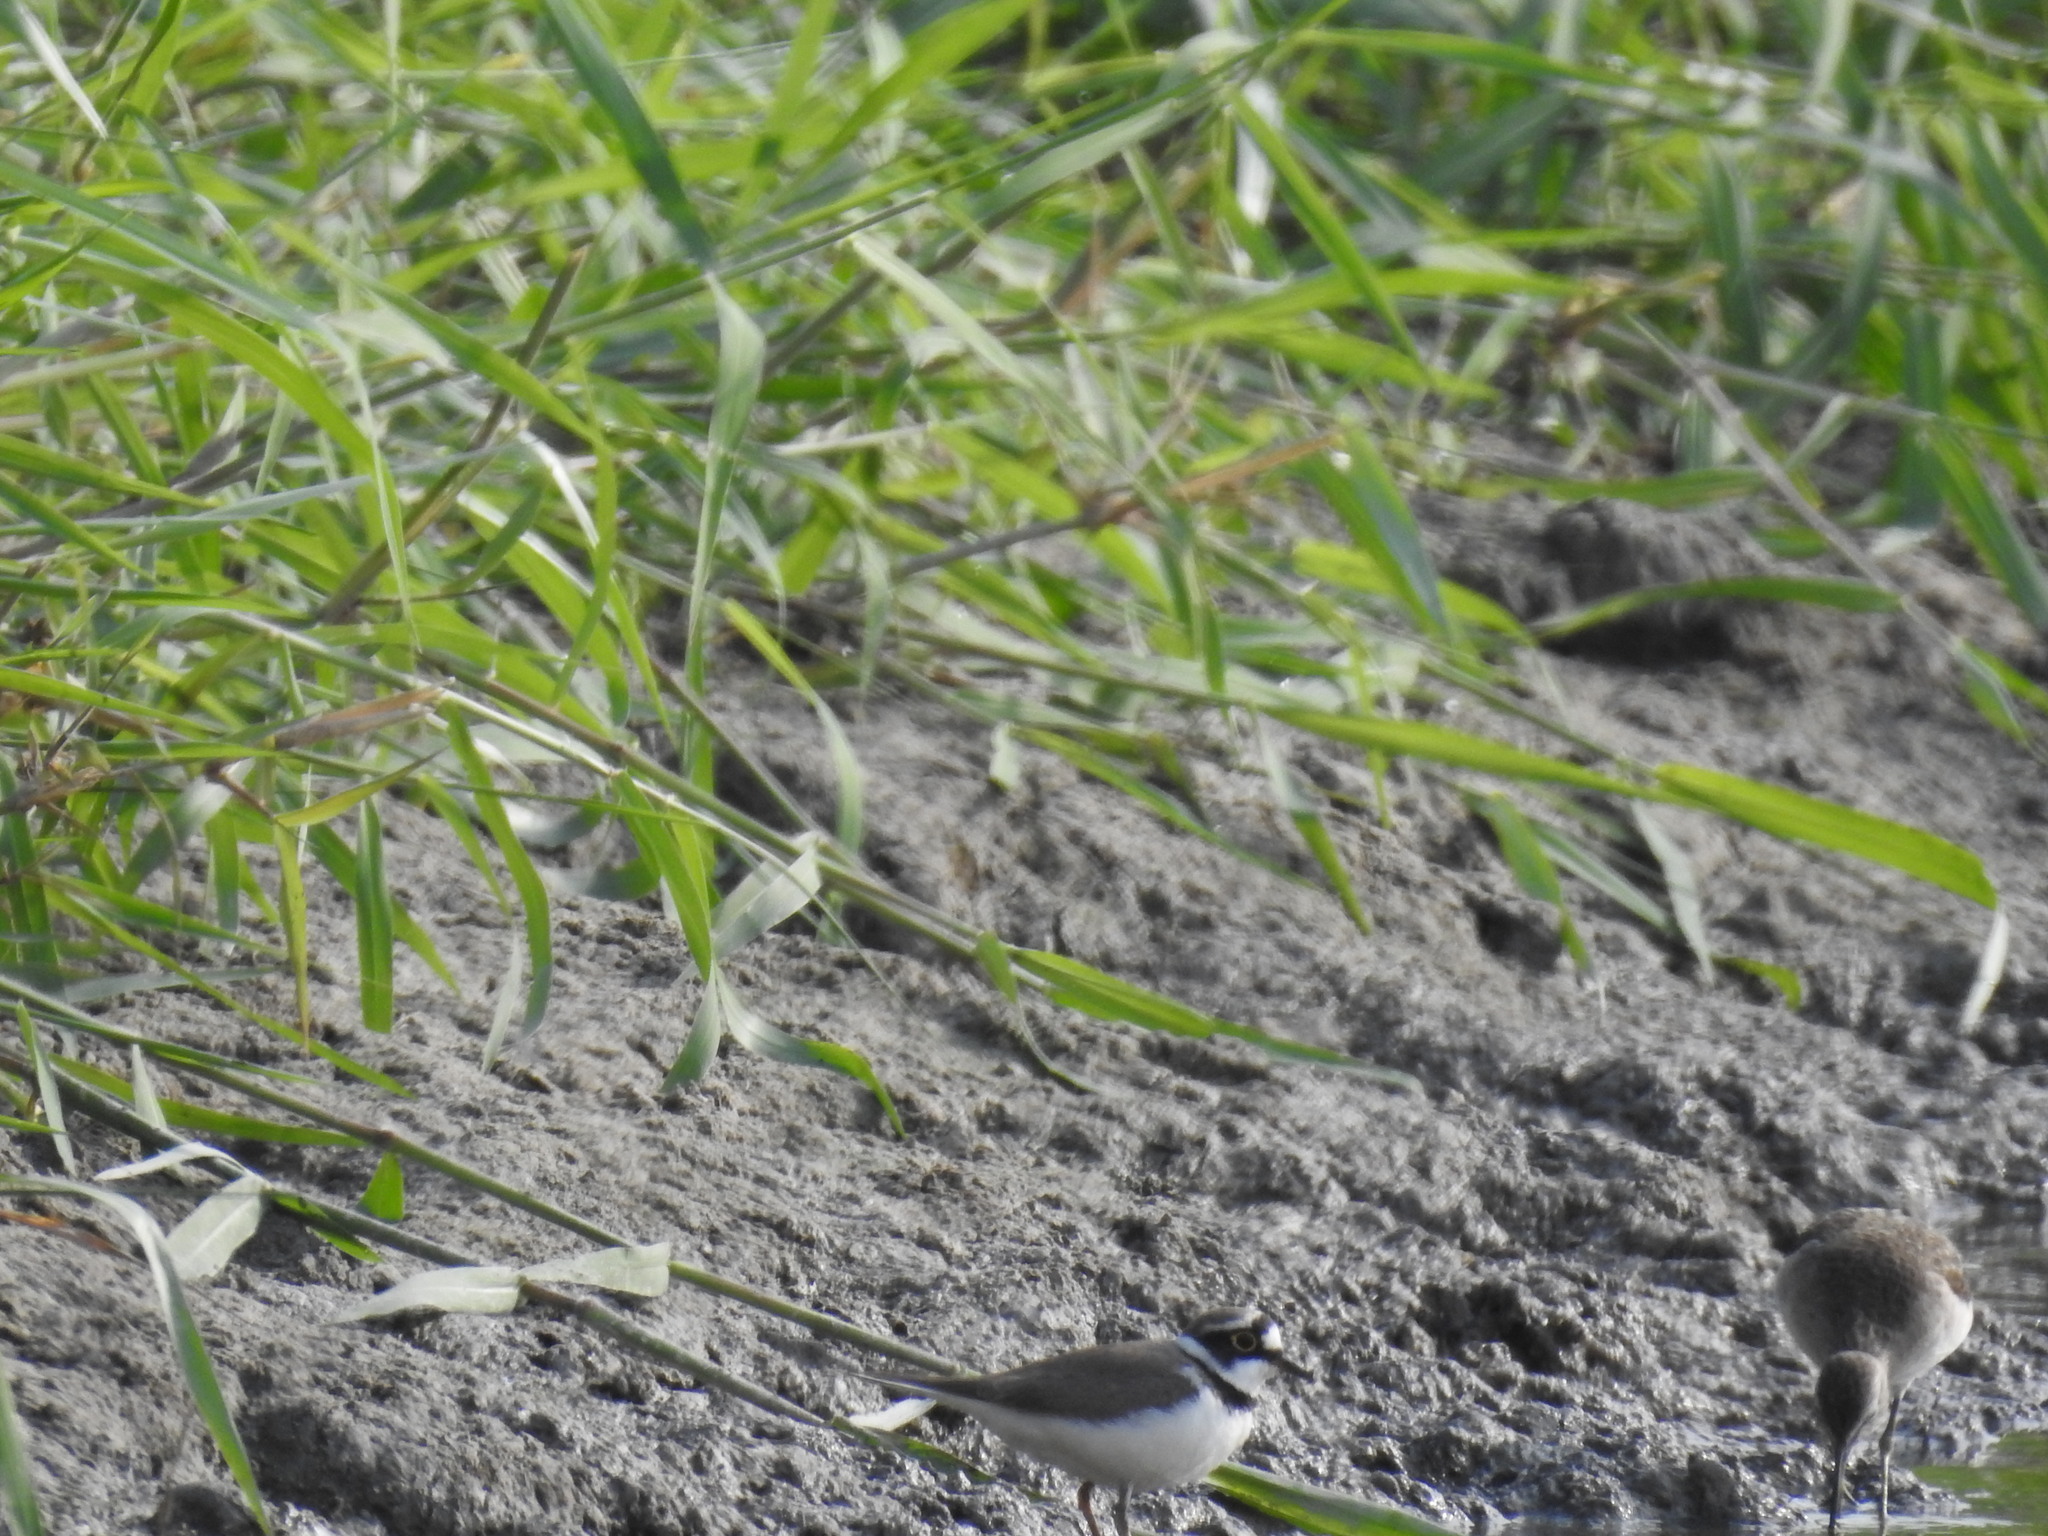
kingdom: Animalia
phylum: Chordata
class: Aves
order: Charadriiformes
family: Charadriidae
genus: Charadrius
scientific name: Charadrius dubius
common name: Little ringed plover
